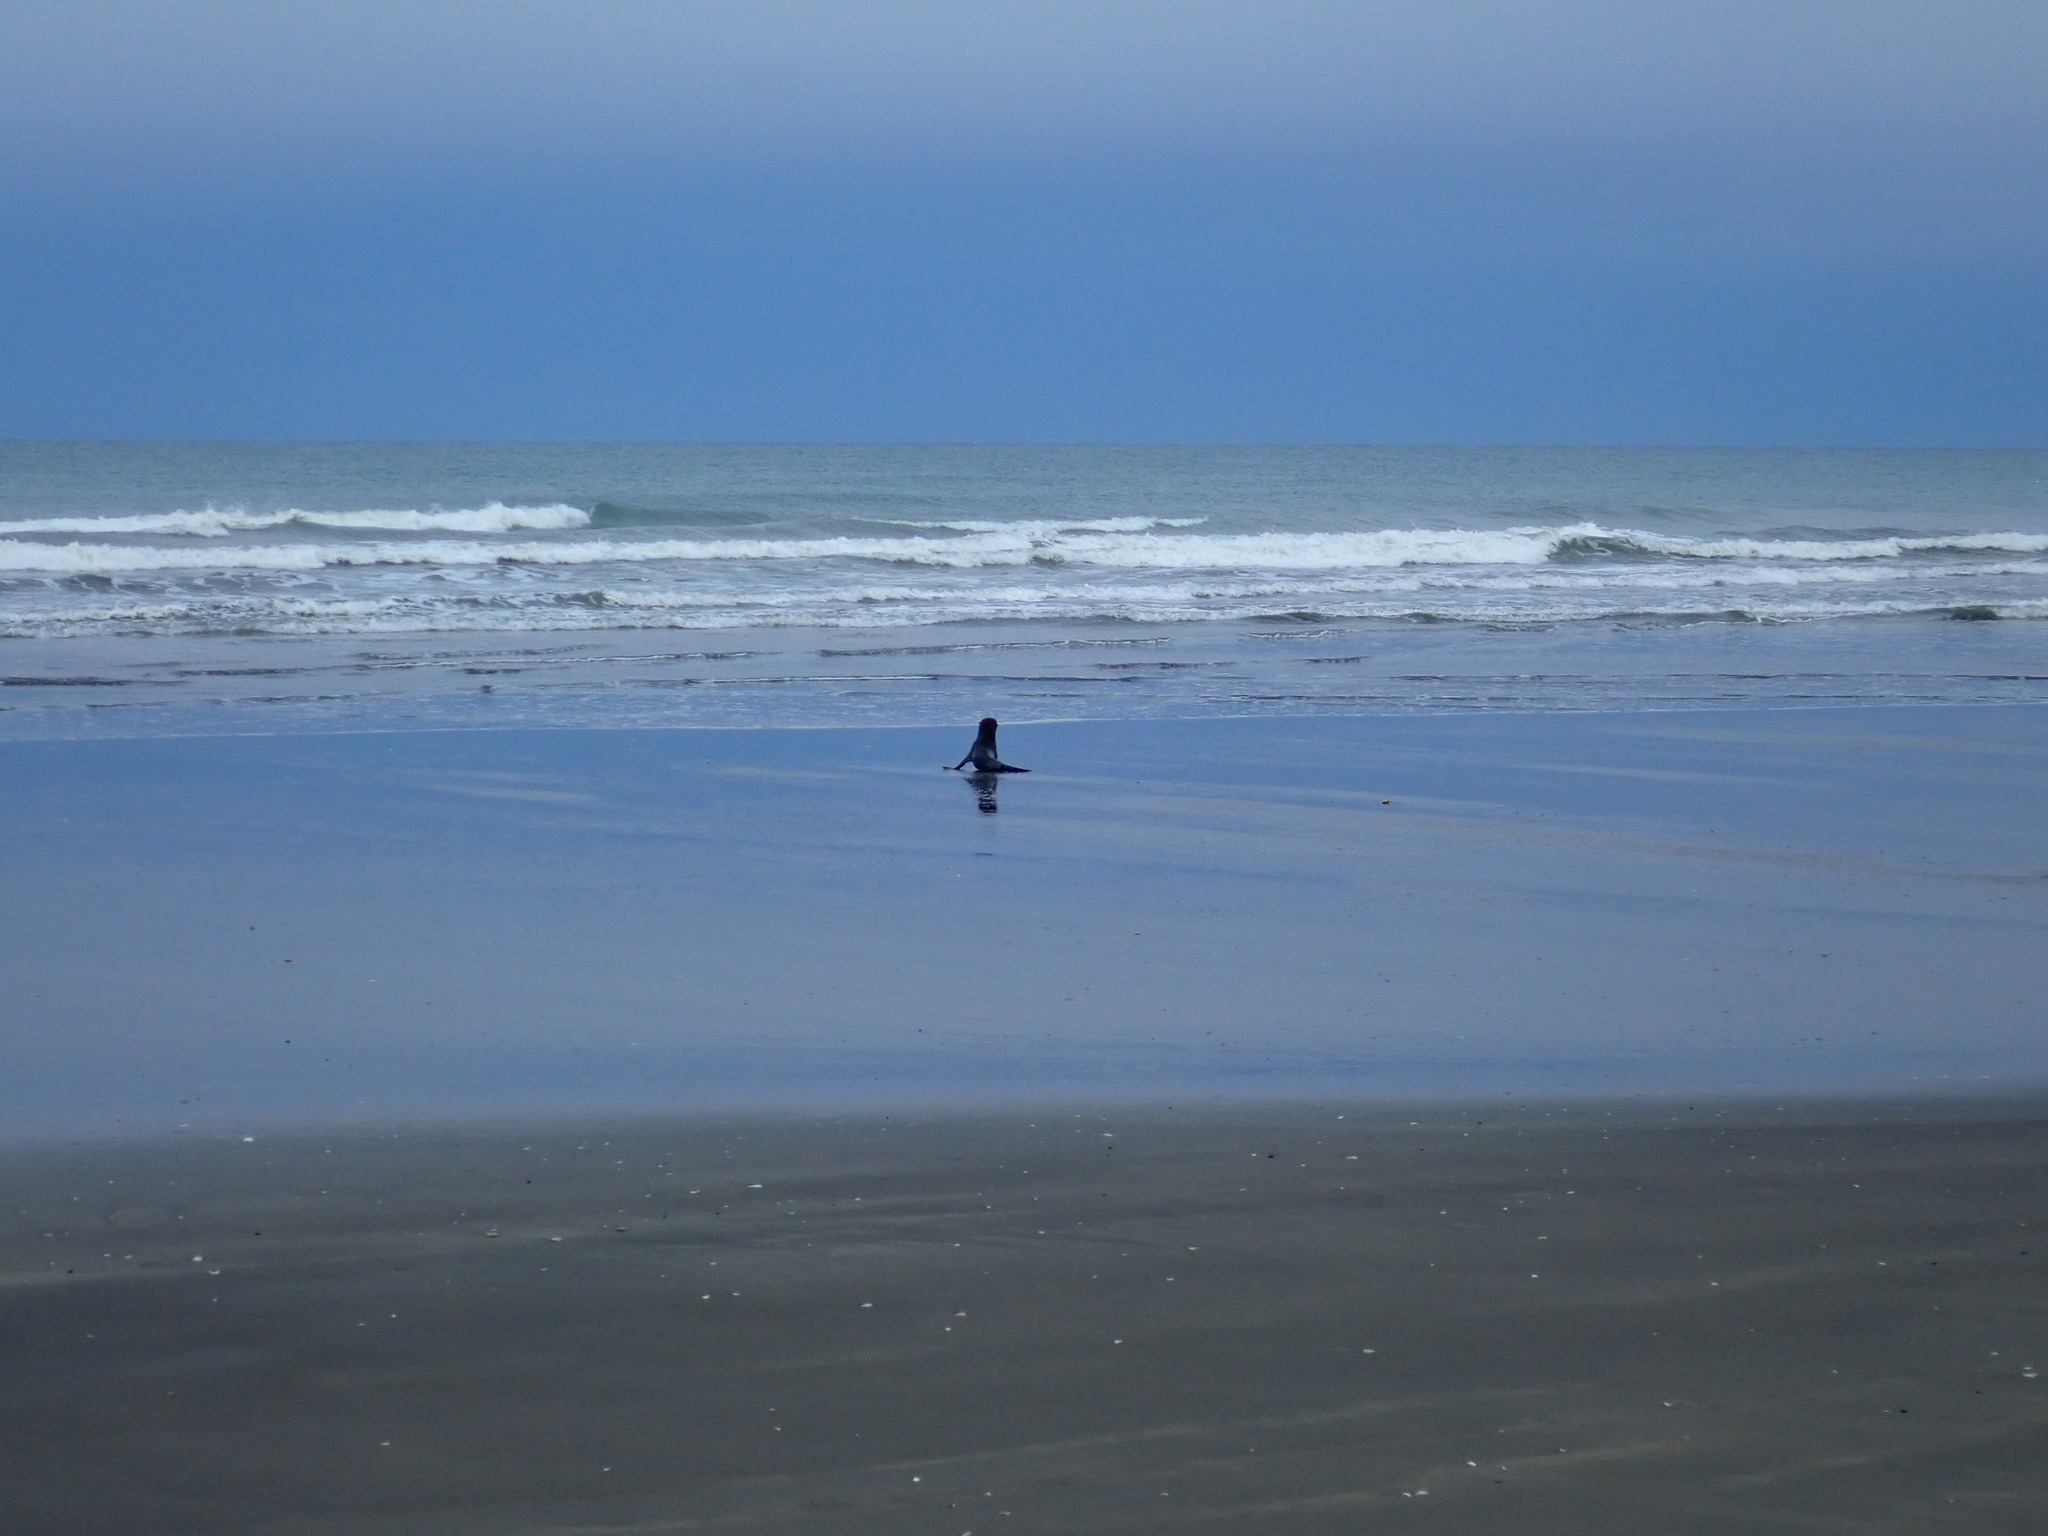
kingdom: Animalia
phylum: Chordata
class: Mammalia
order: Carnivora
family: Otariidae
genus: Arctocephalus
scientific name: Arctocephalus forsteri
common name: New zealand fur seal
